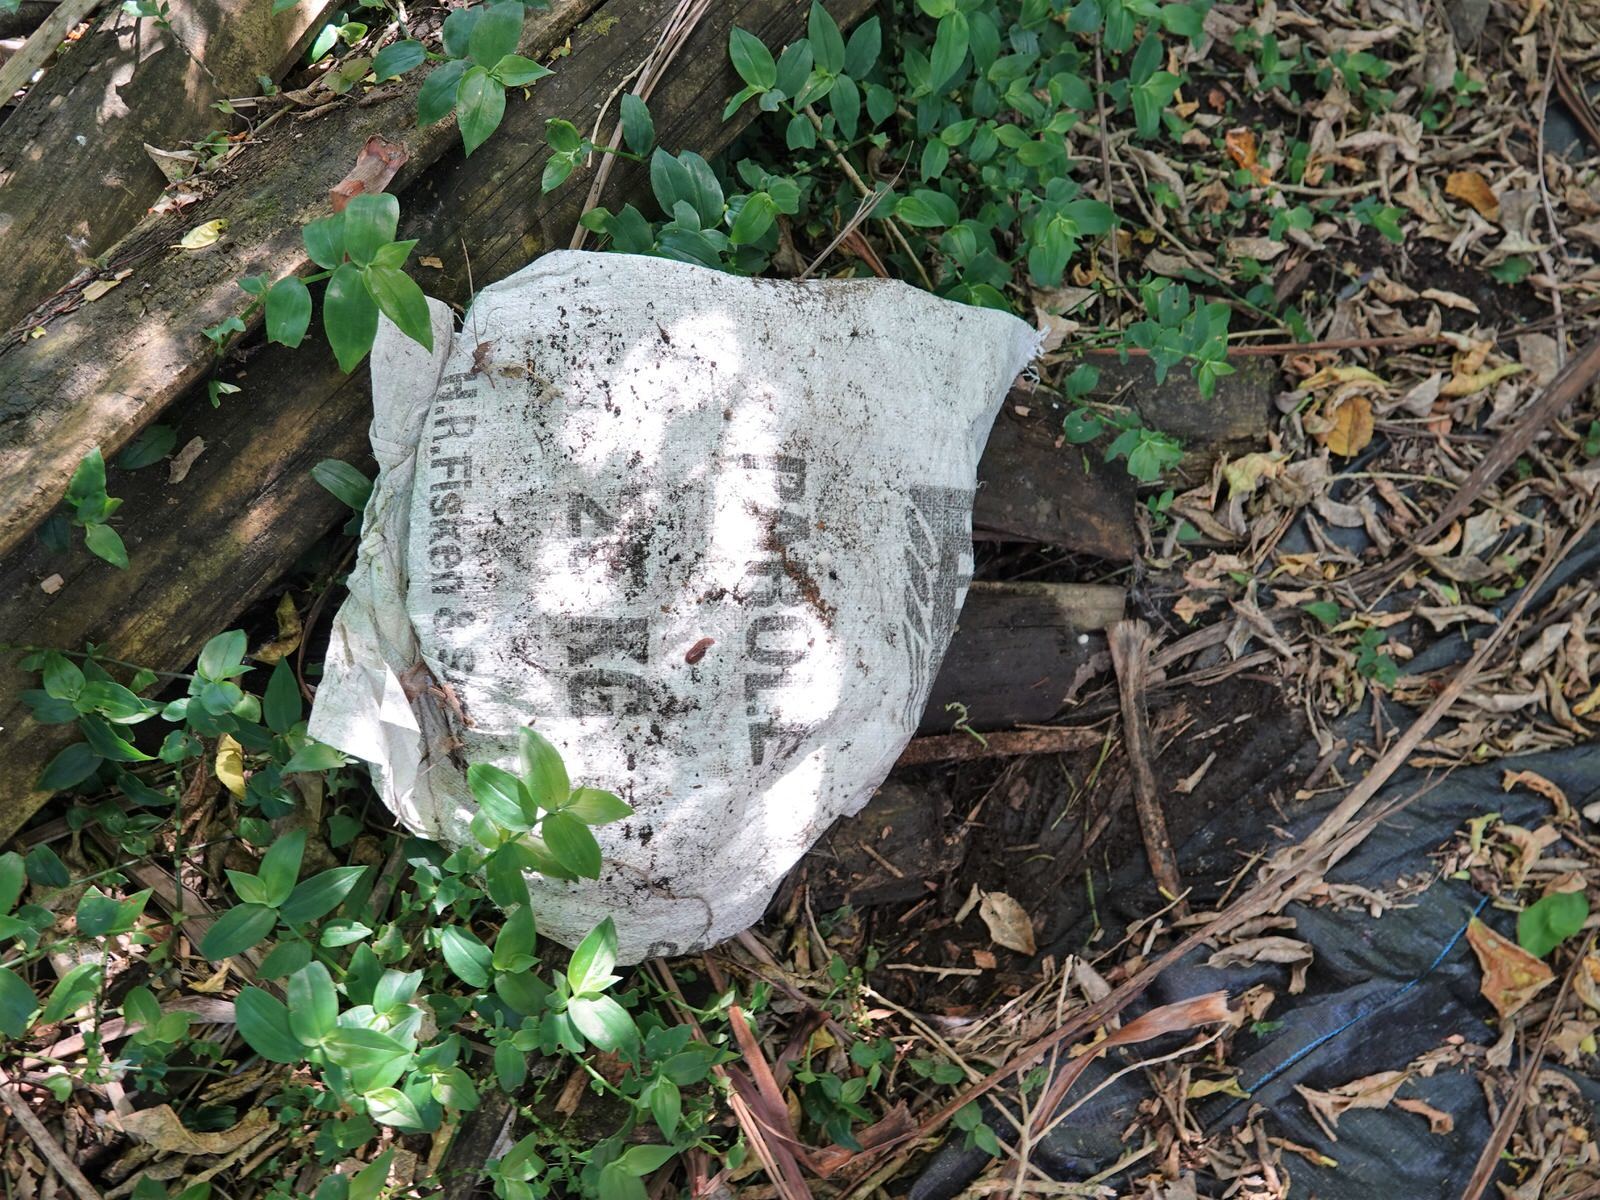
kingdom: Animalia
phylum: Mollusca
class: Gastropoda
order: Stylommatophora
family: Oxychilidae
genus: Oxychilus
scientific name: Oxychilus draparnaudi
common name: Draparnaud's glass snail
